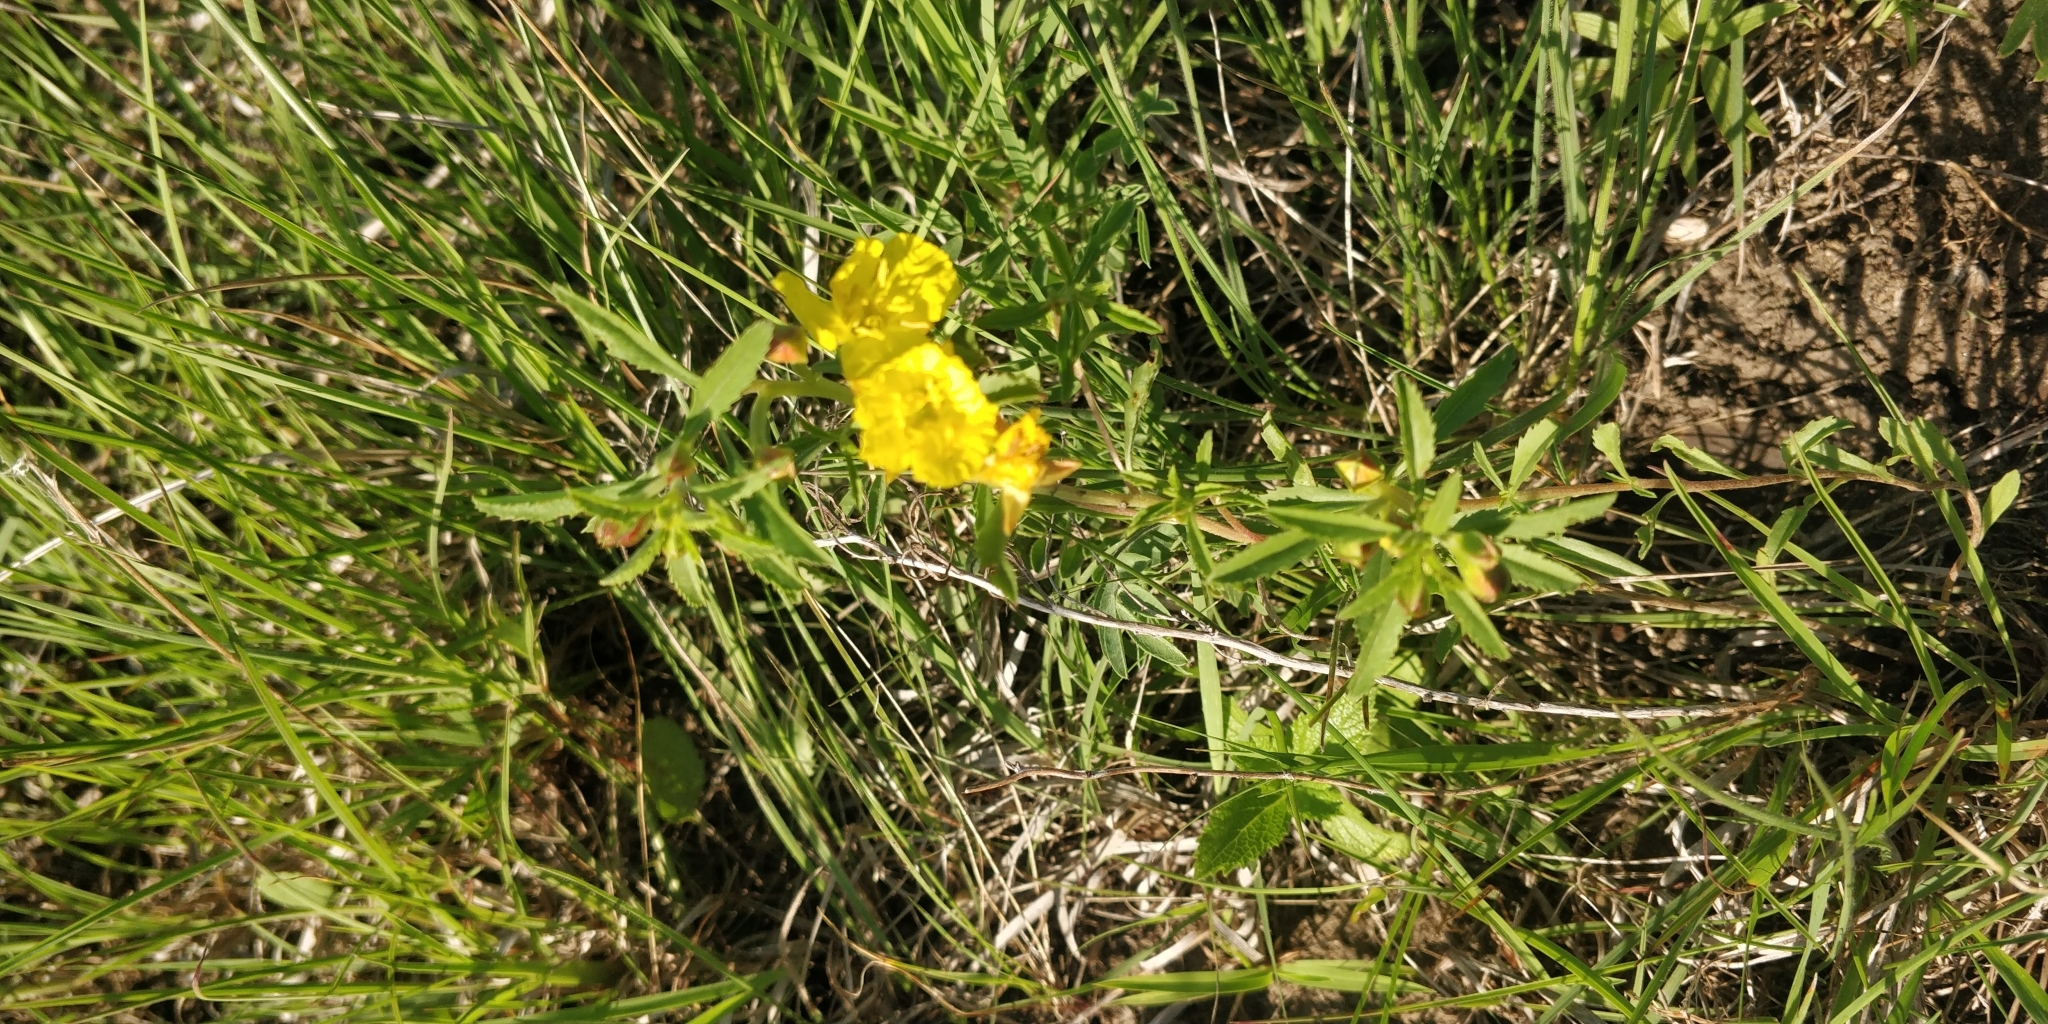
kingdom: Plantae
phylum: Tracheophyta
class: Magnoliopsida
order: Myrtales
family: Onagraceae
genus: Oenothera
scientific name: Oenothera serrulata
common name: Half-shrub calylophus
